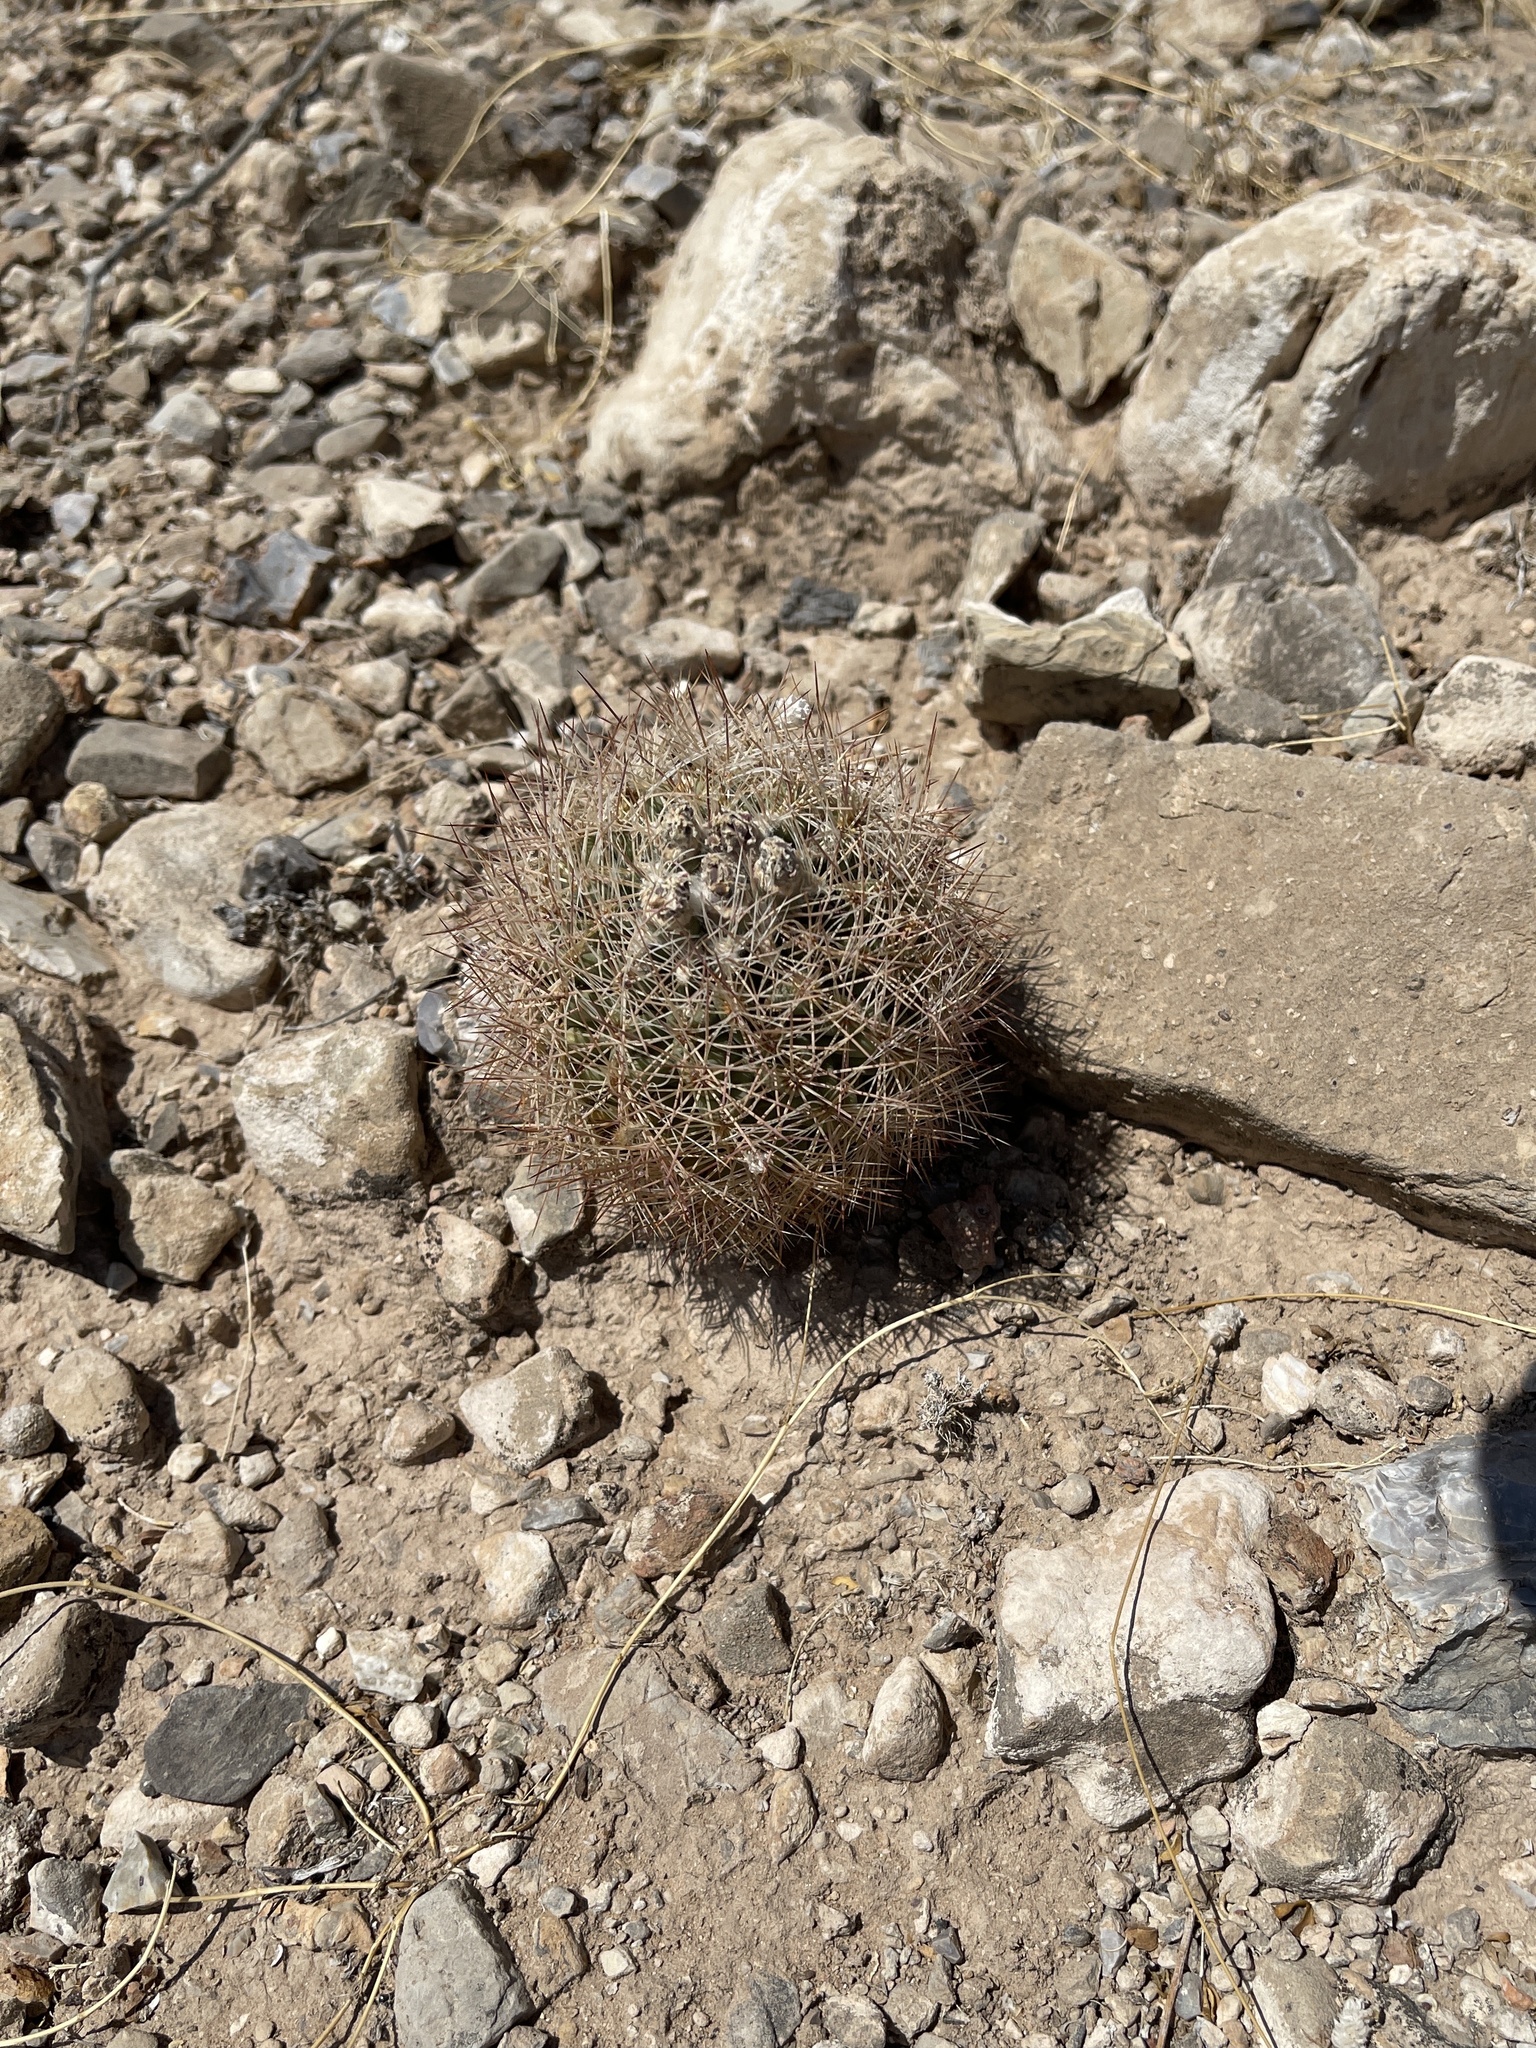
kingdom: Plantae
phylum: Tracheophyta
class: Magnoliopsida
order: Caryophyllales
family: Cactaceae
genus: Sclerocactus
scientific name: Sclerocactus intertextus
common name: White fish-hook cactus
